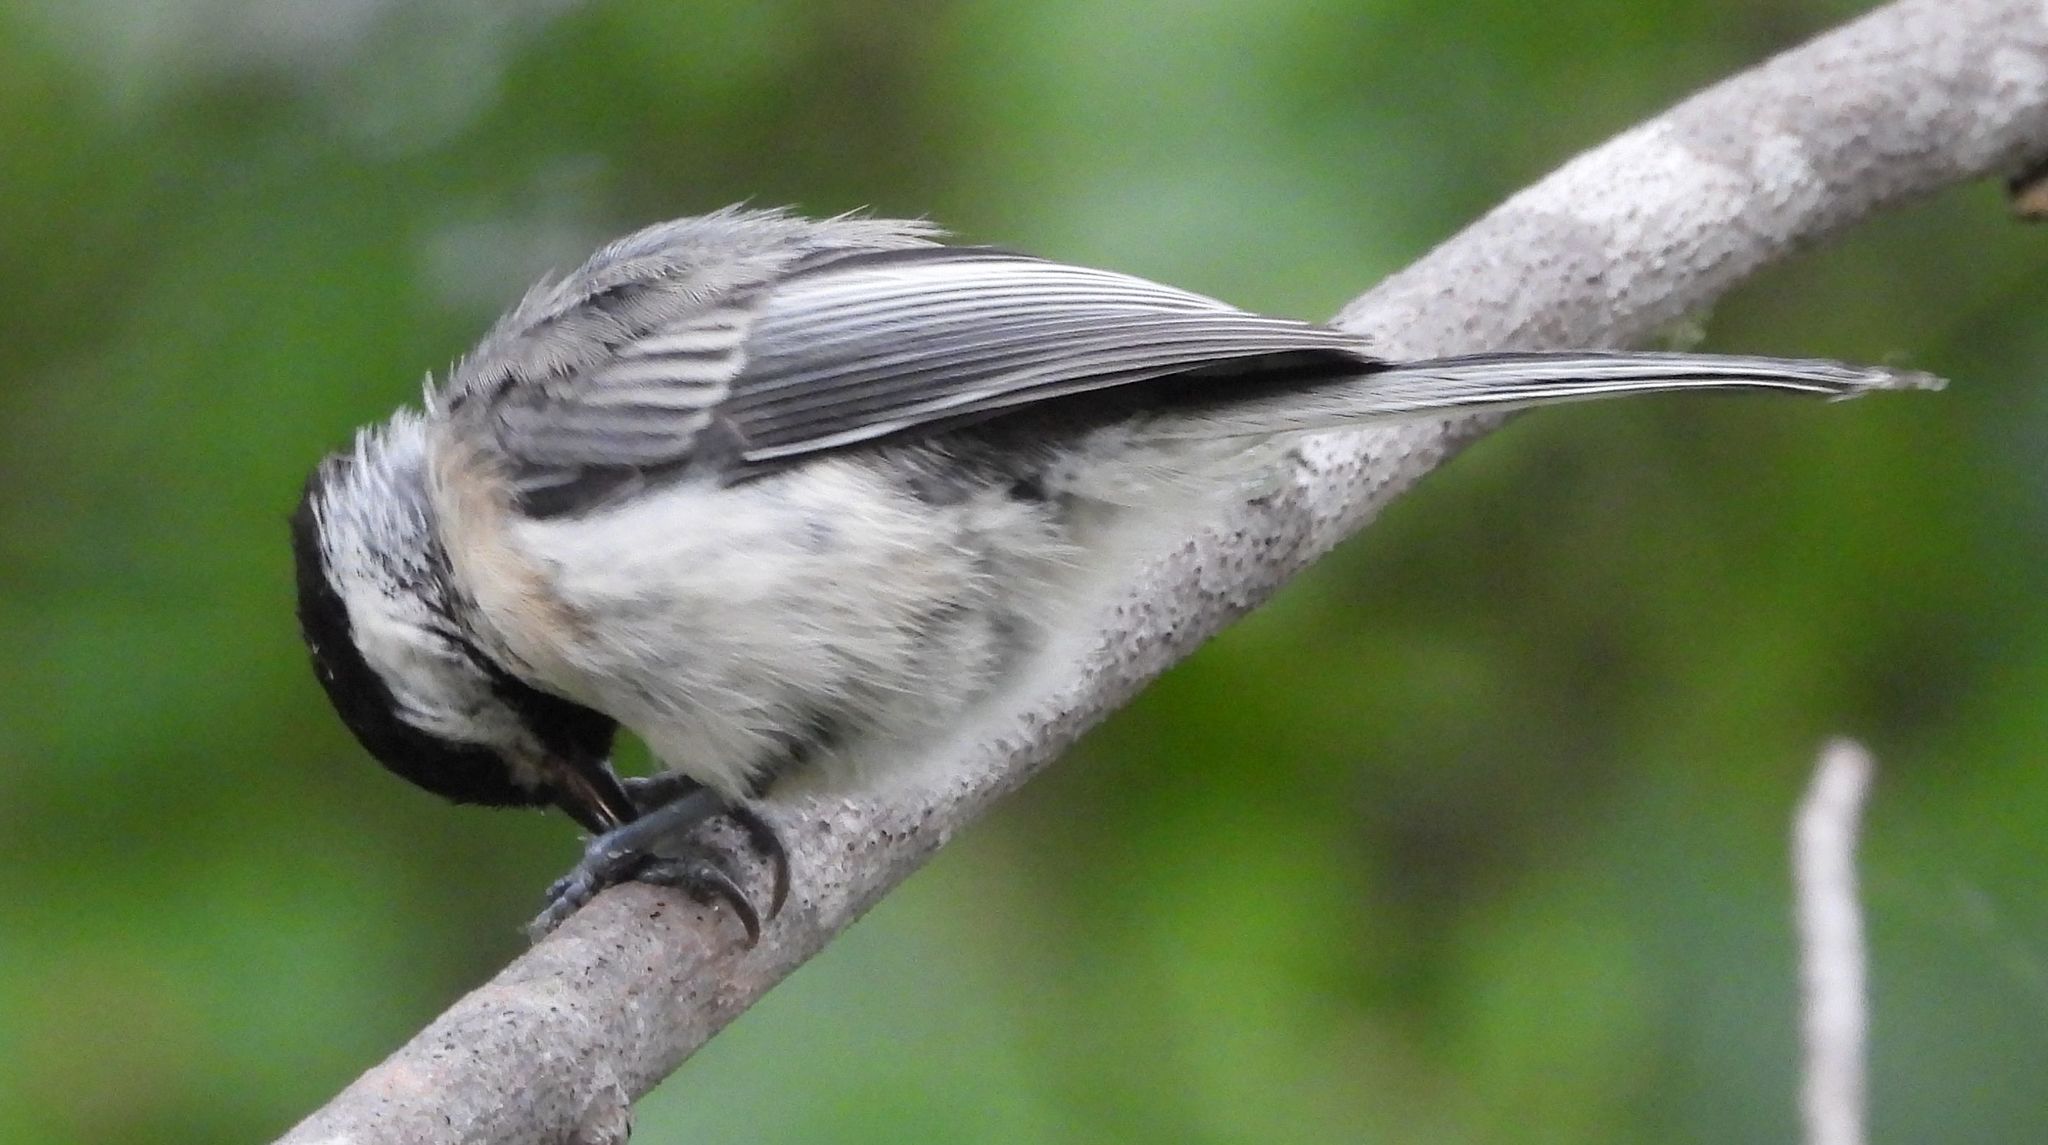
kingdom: Animalia
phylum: Chordata
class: Aves
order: Passeriformes
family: Paridae
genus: Poecile
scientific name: Poecile atricapillus
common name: Black-capped chickadee
